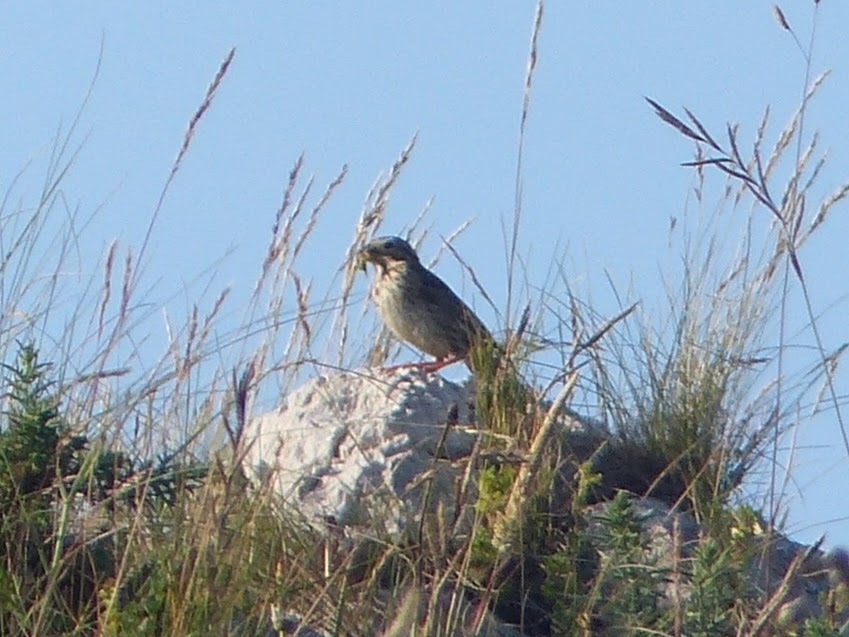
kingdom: Animalia
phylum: Chordata
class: Aves
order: Passeriformes
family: Emberizidae
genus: Emberiza
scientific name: Emberiza calandra
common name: Corn bunting
